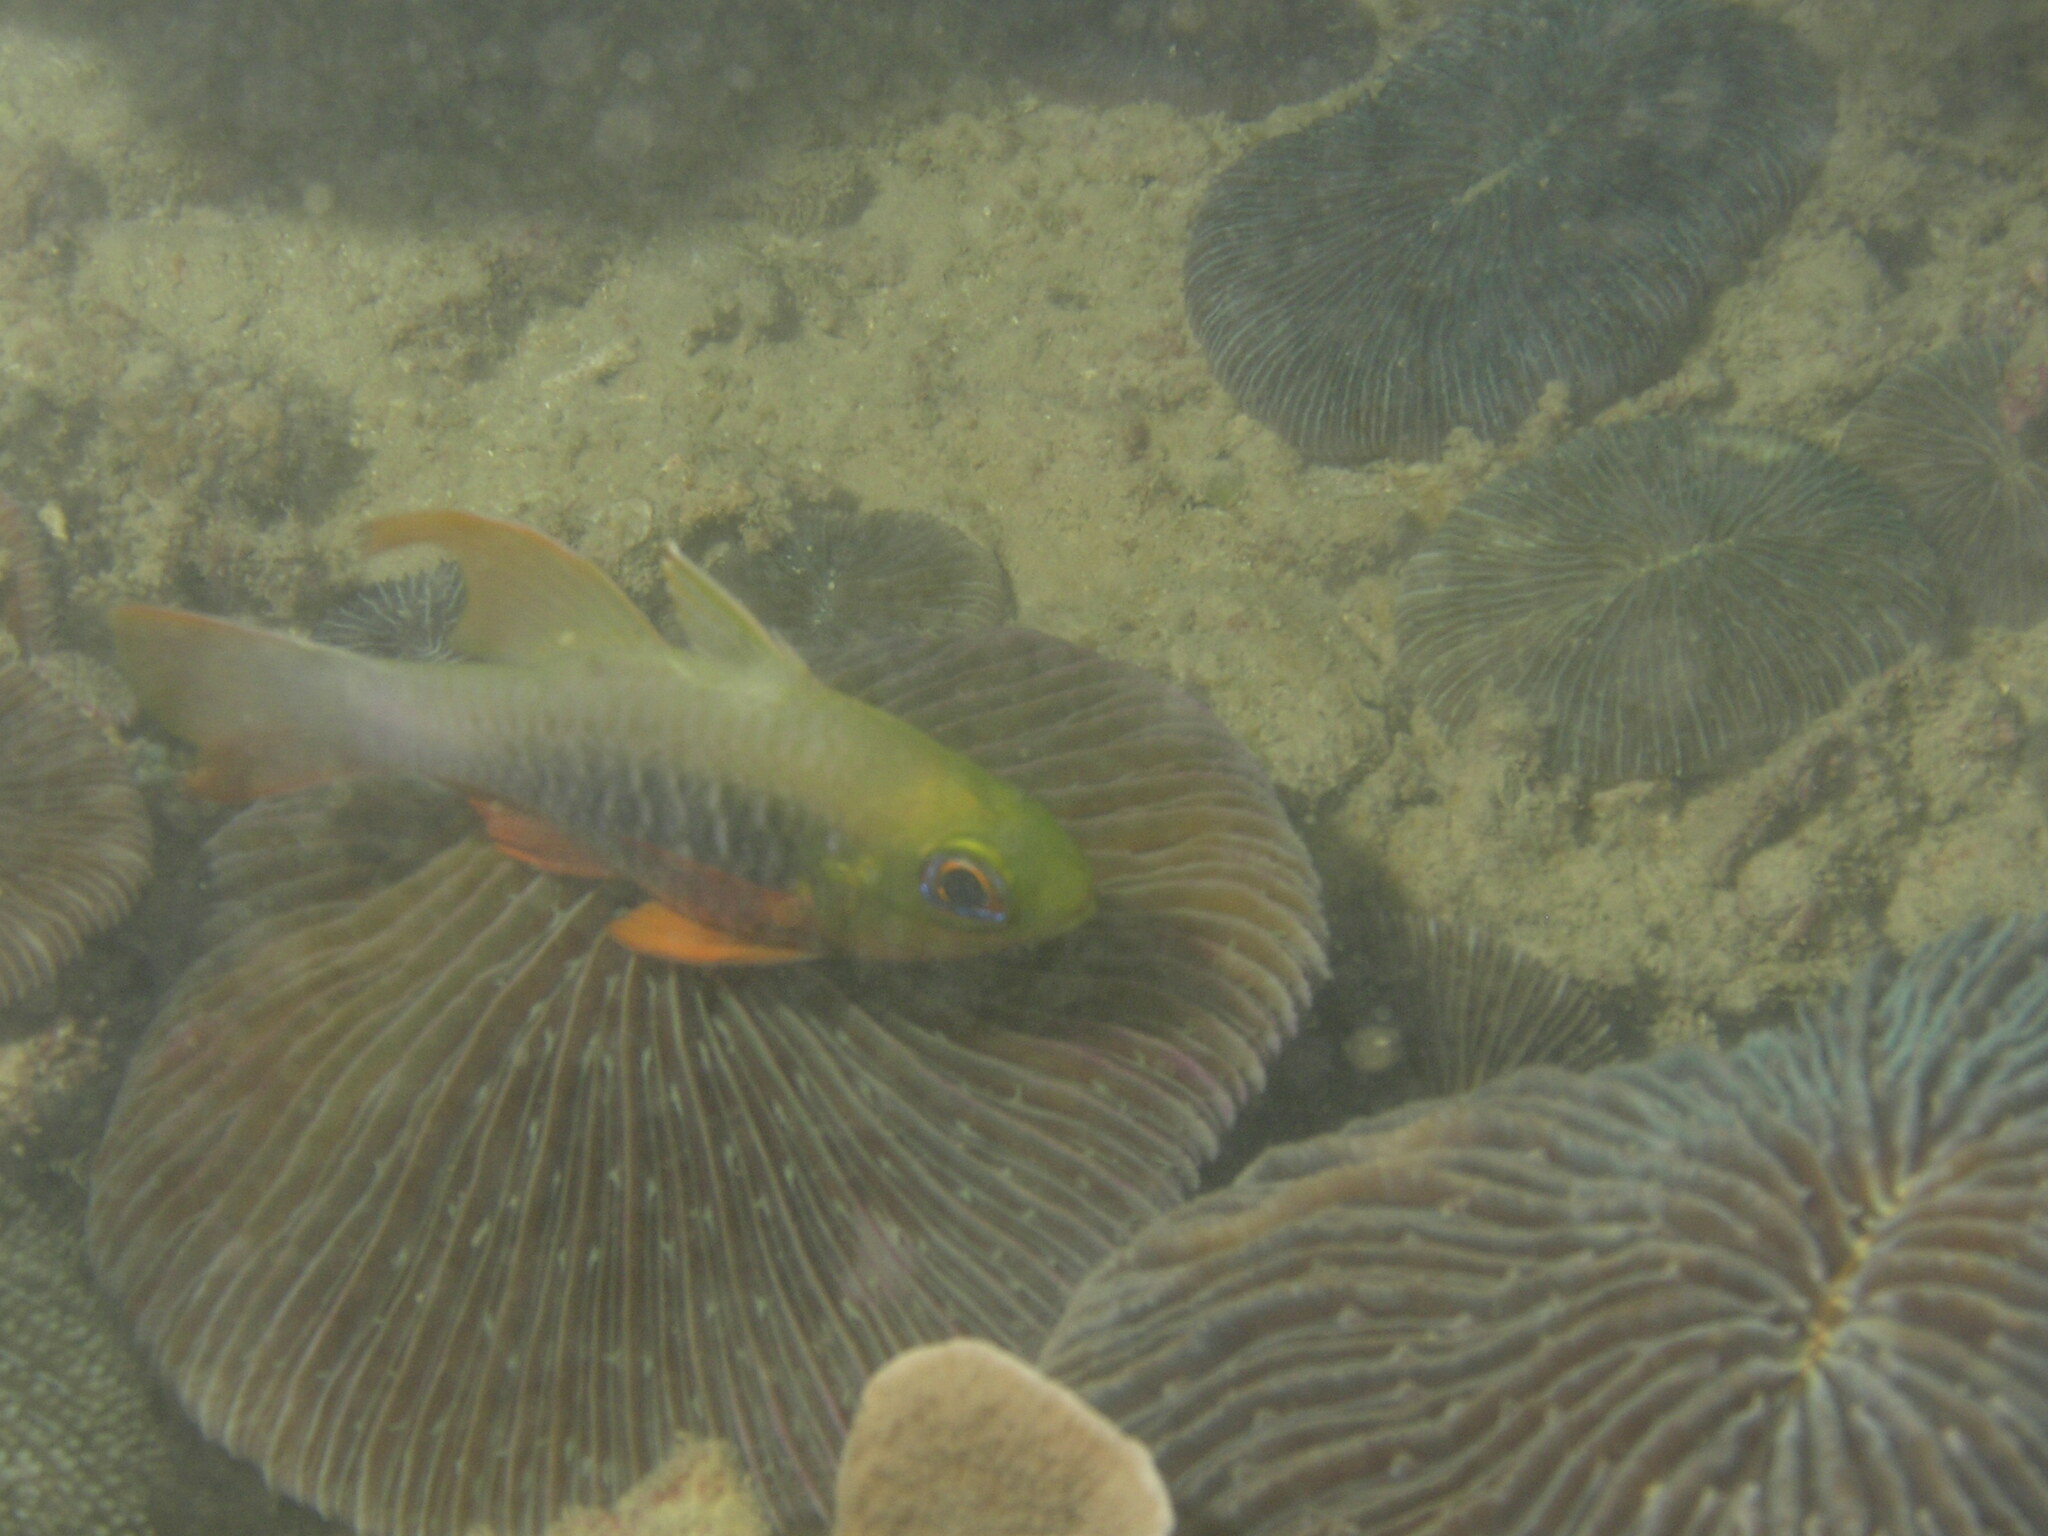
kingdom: Animalia
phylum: Chordata
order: Perciformes
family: Apogonidae
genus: Ostorhinchus
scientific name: Ostorhinchus griffini
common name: Cardinalfish
